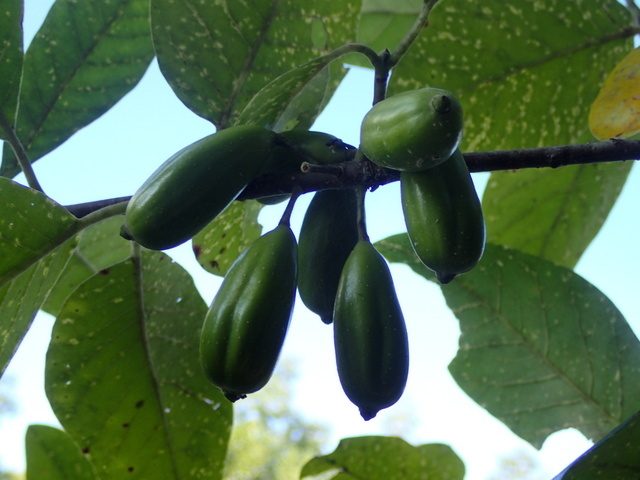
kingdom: Plantae
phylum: Tracheophyta
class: Magnoliopsida
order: Cornales
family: Nyssaceae
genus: Nyssa
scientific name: Nyssa ogeche
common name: Ogeechee tupelo
